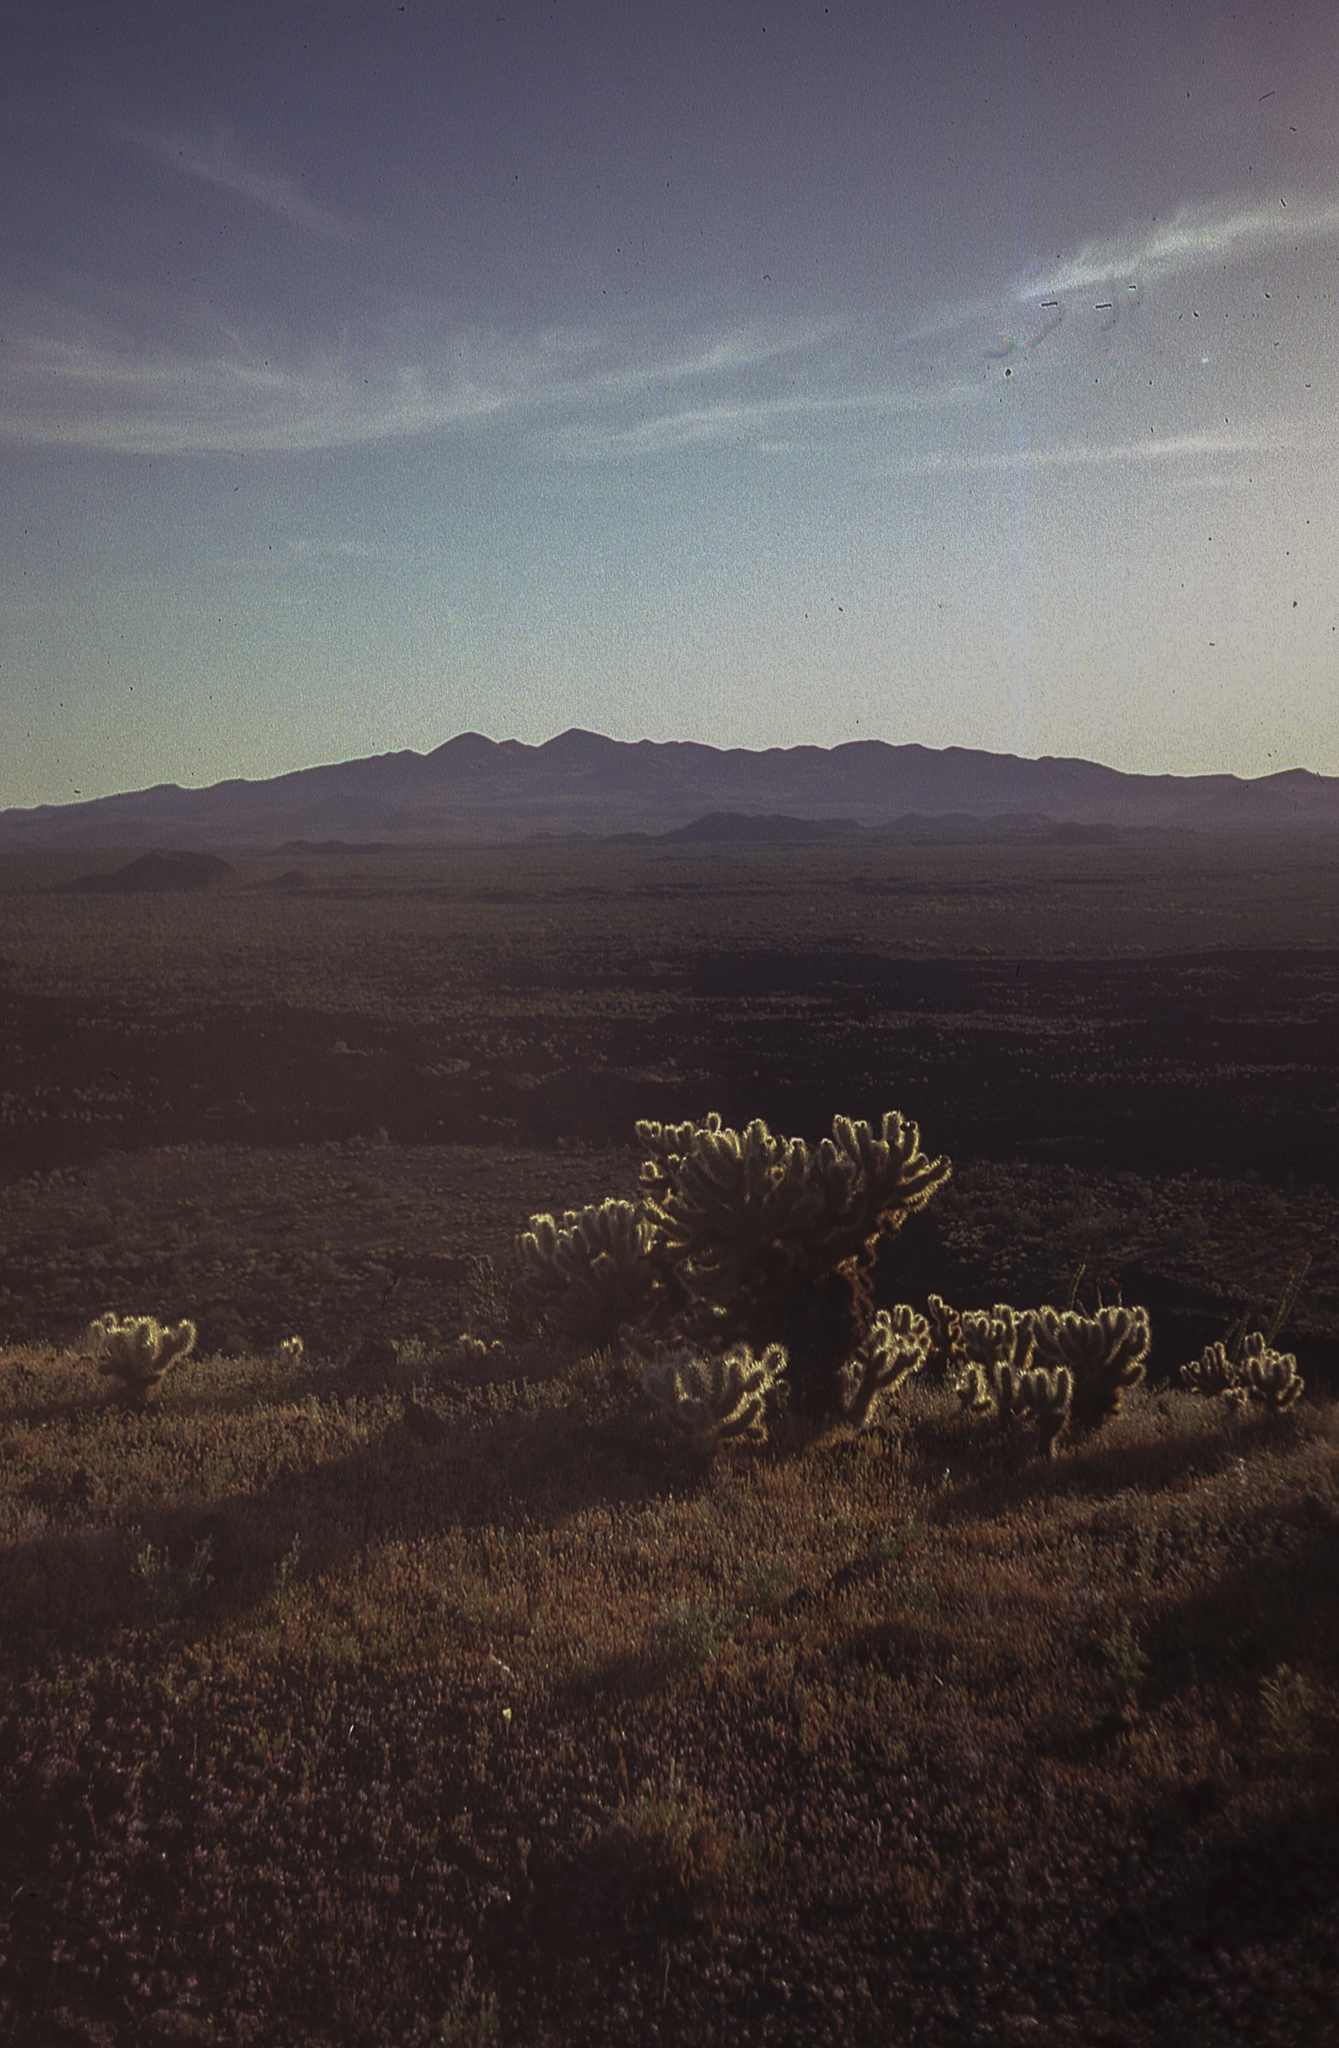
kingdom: Plantae
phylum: Tracheophyta
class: Magnoliopsida
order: Caryophyllales
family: Cactaceae
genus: Cylindropuntia
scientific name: Cylindropuntia fosbergii
